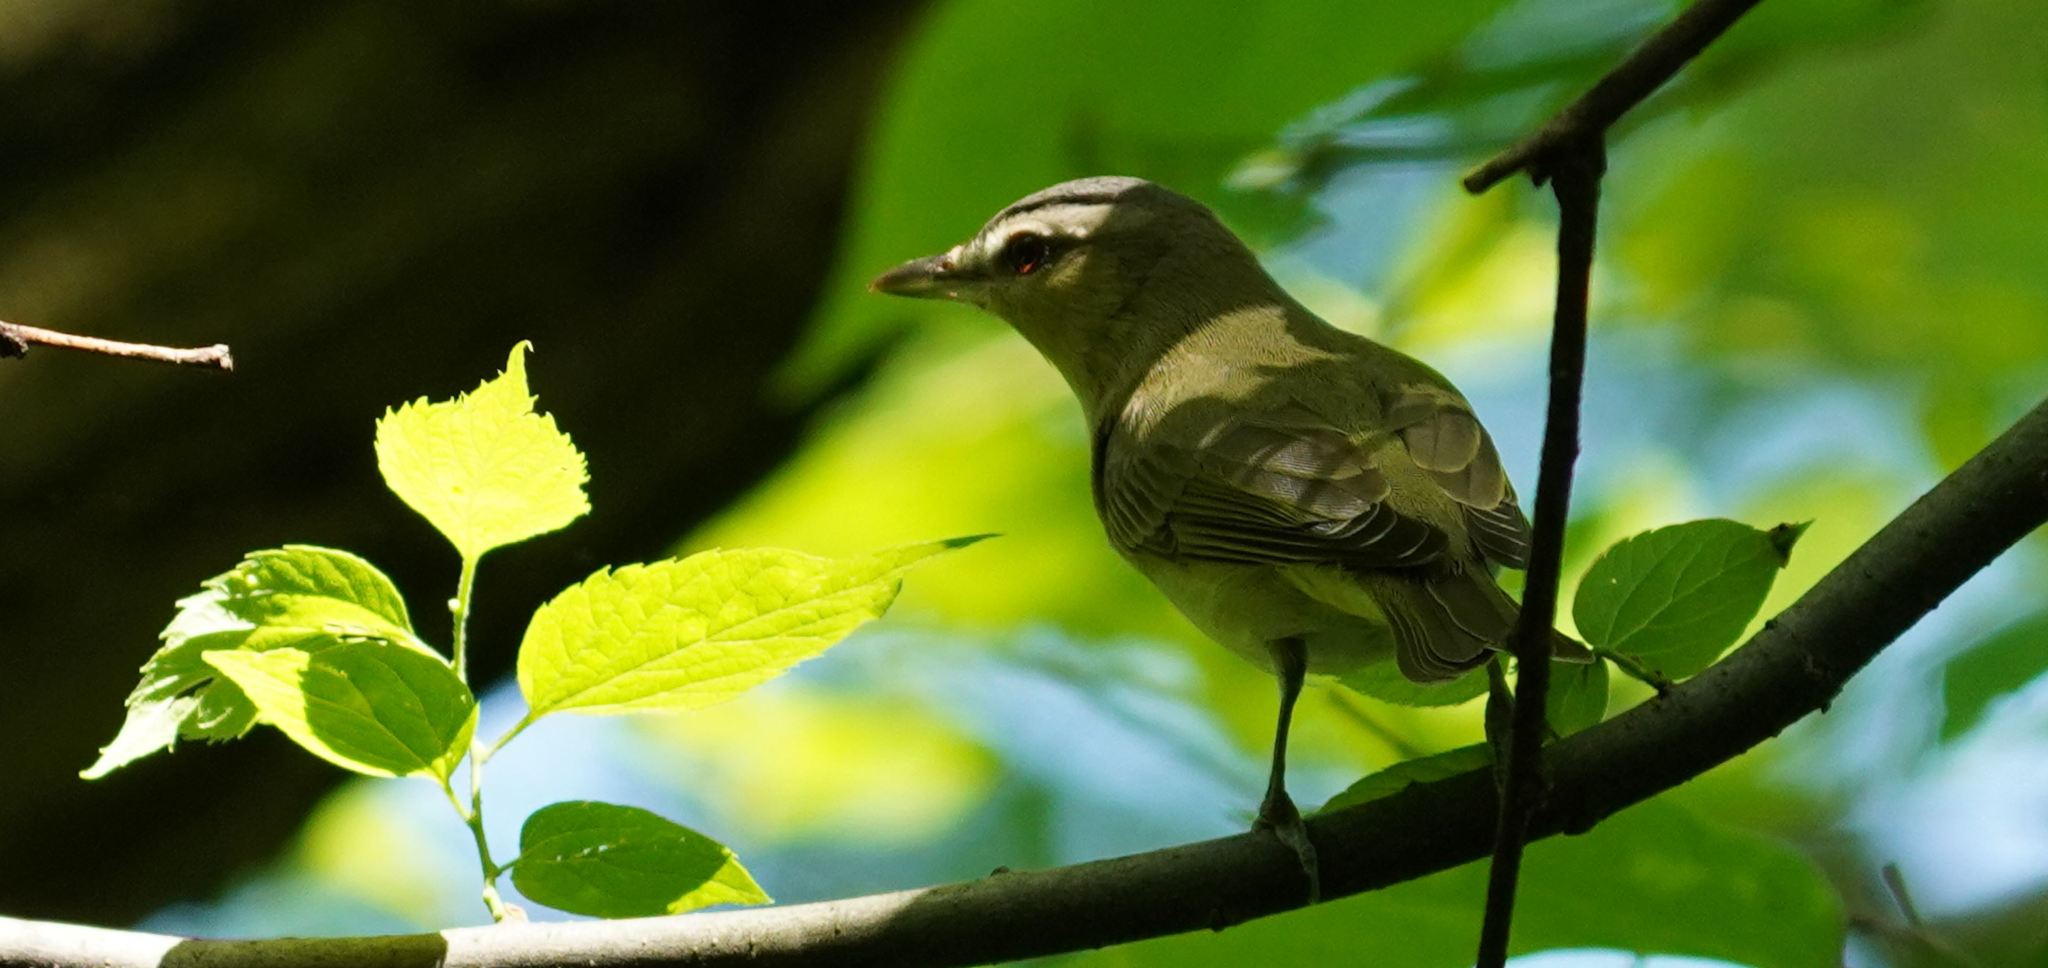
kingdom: Animalia
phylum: Chordata
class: Aves
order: Passeriformes
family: Vireonidae
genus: Vireo
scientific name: Vireo olivaceus
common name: Red-eyed vireo
